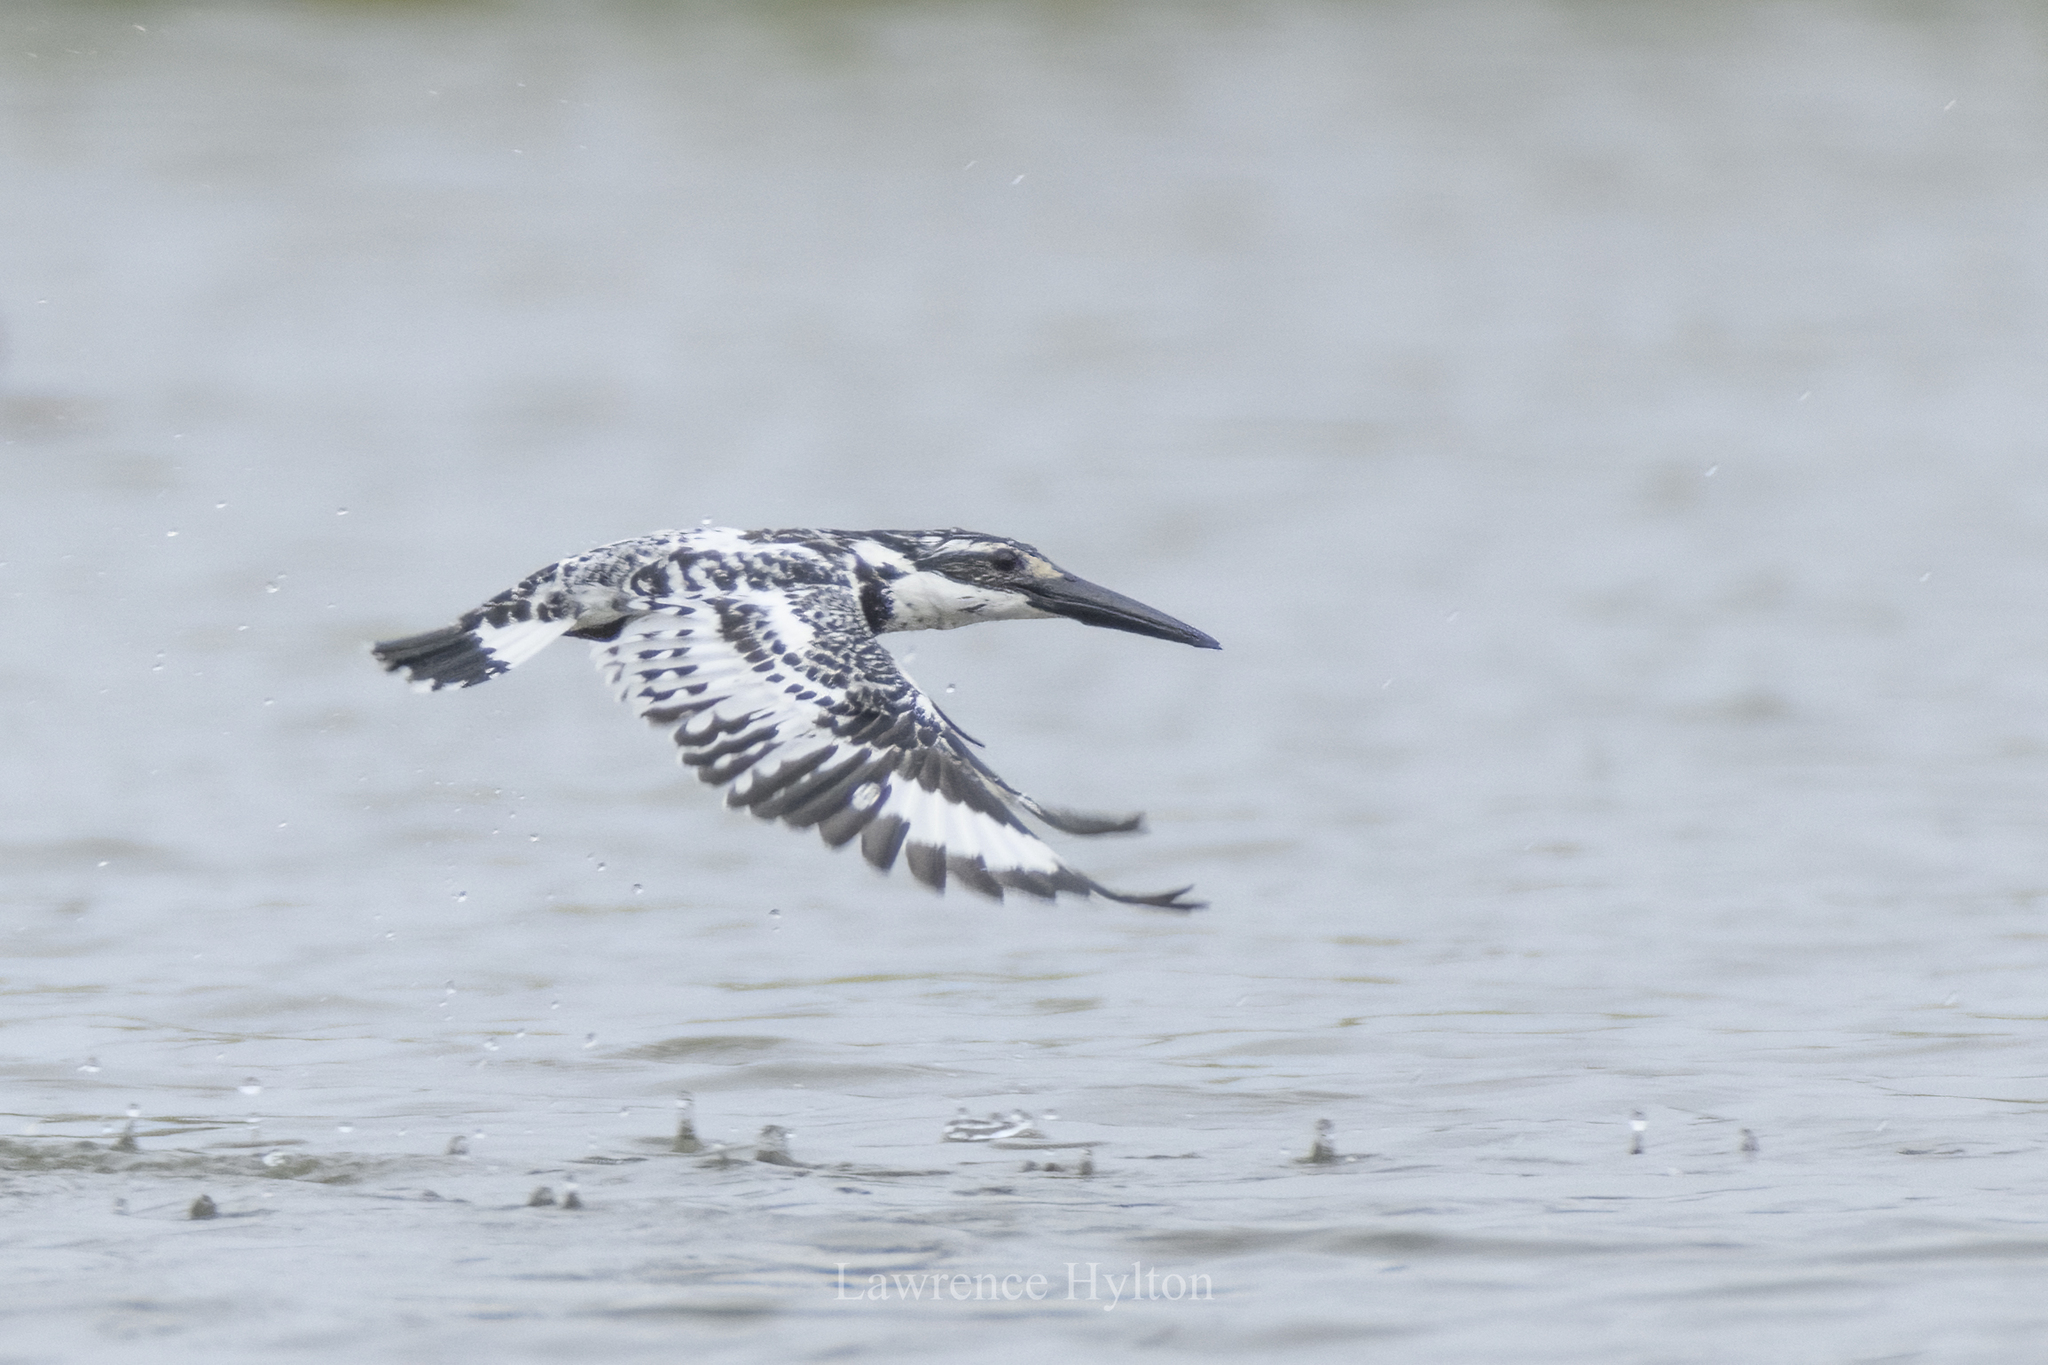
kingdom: Animalia
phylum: Chordata
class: Aves
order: Coraciiformes
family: Alcedinidae
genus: Ceryle
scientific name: Ceryle rudis
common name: Pied kingfisher
